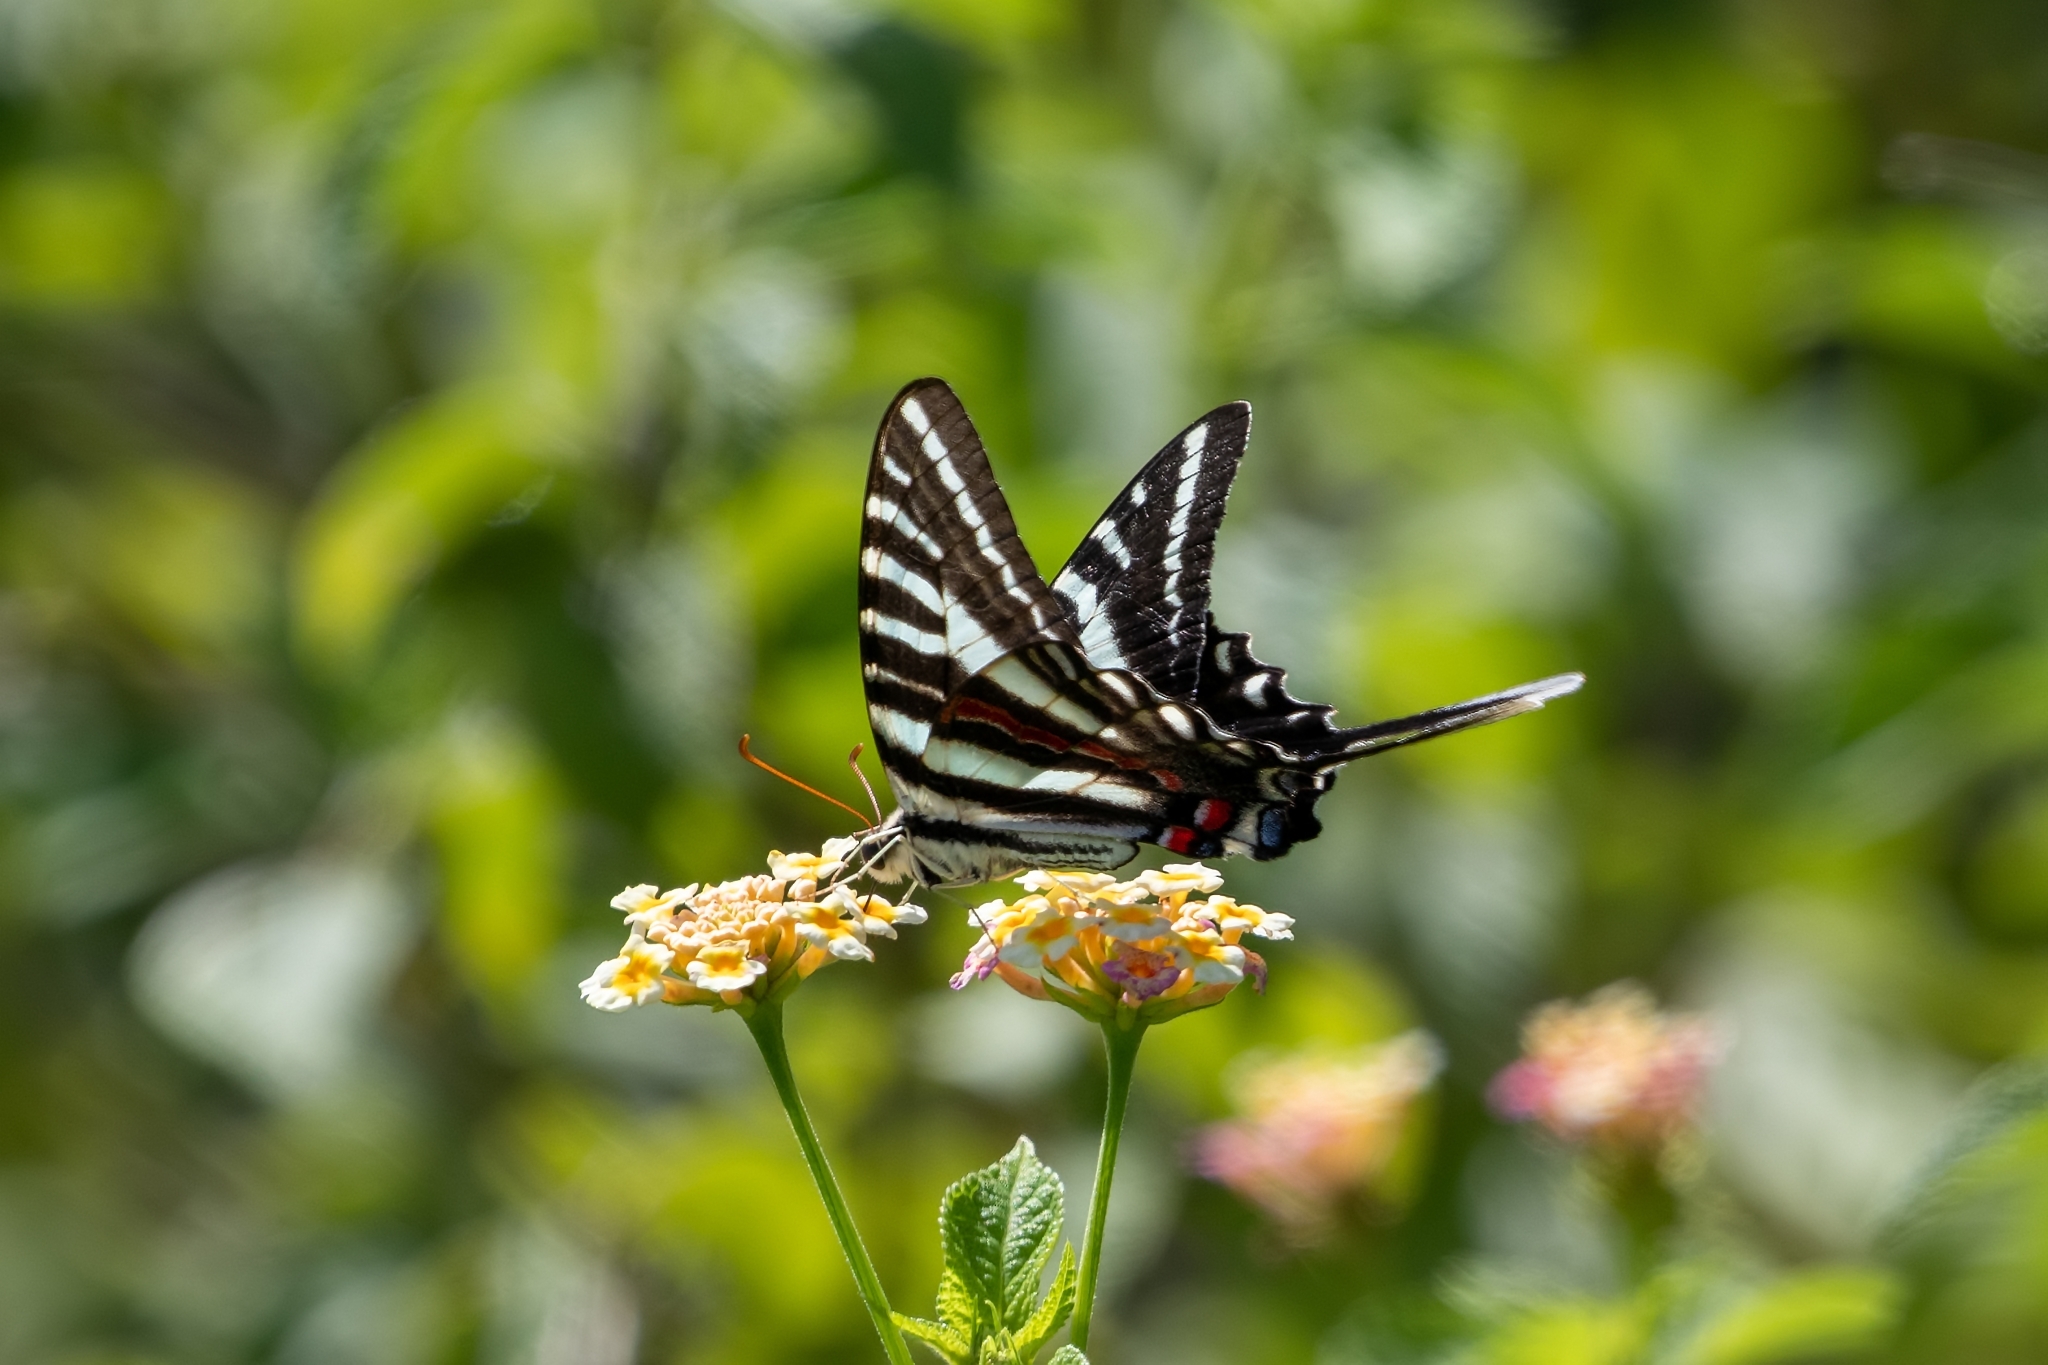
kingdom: Animalia
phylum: Arthropoda
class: Insecta
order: Lepidoptera
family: Papilionidae
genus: Protographium
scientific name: Protographium marcellus
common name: Zebra swallowtail
